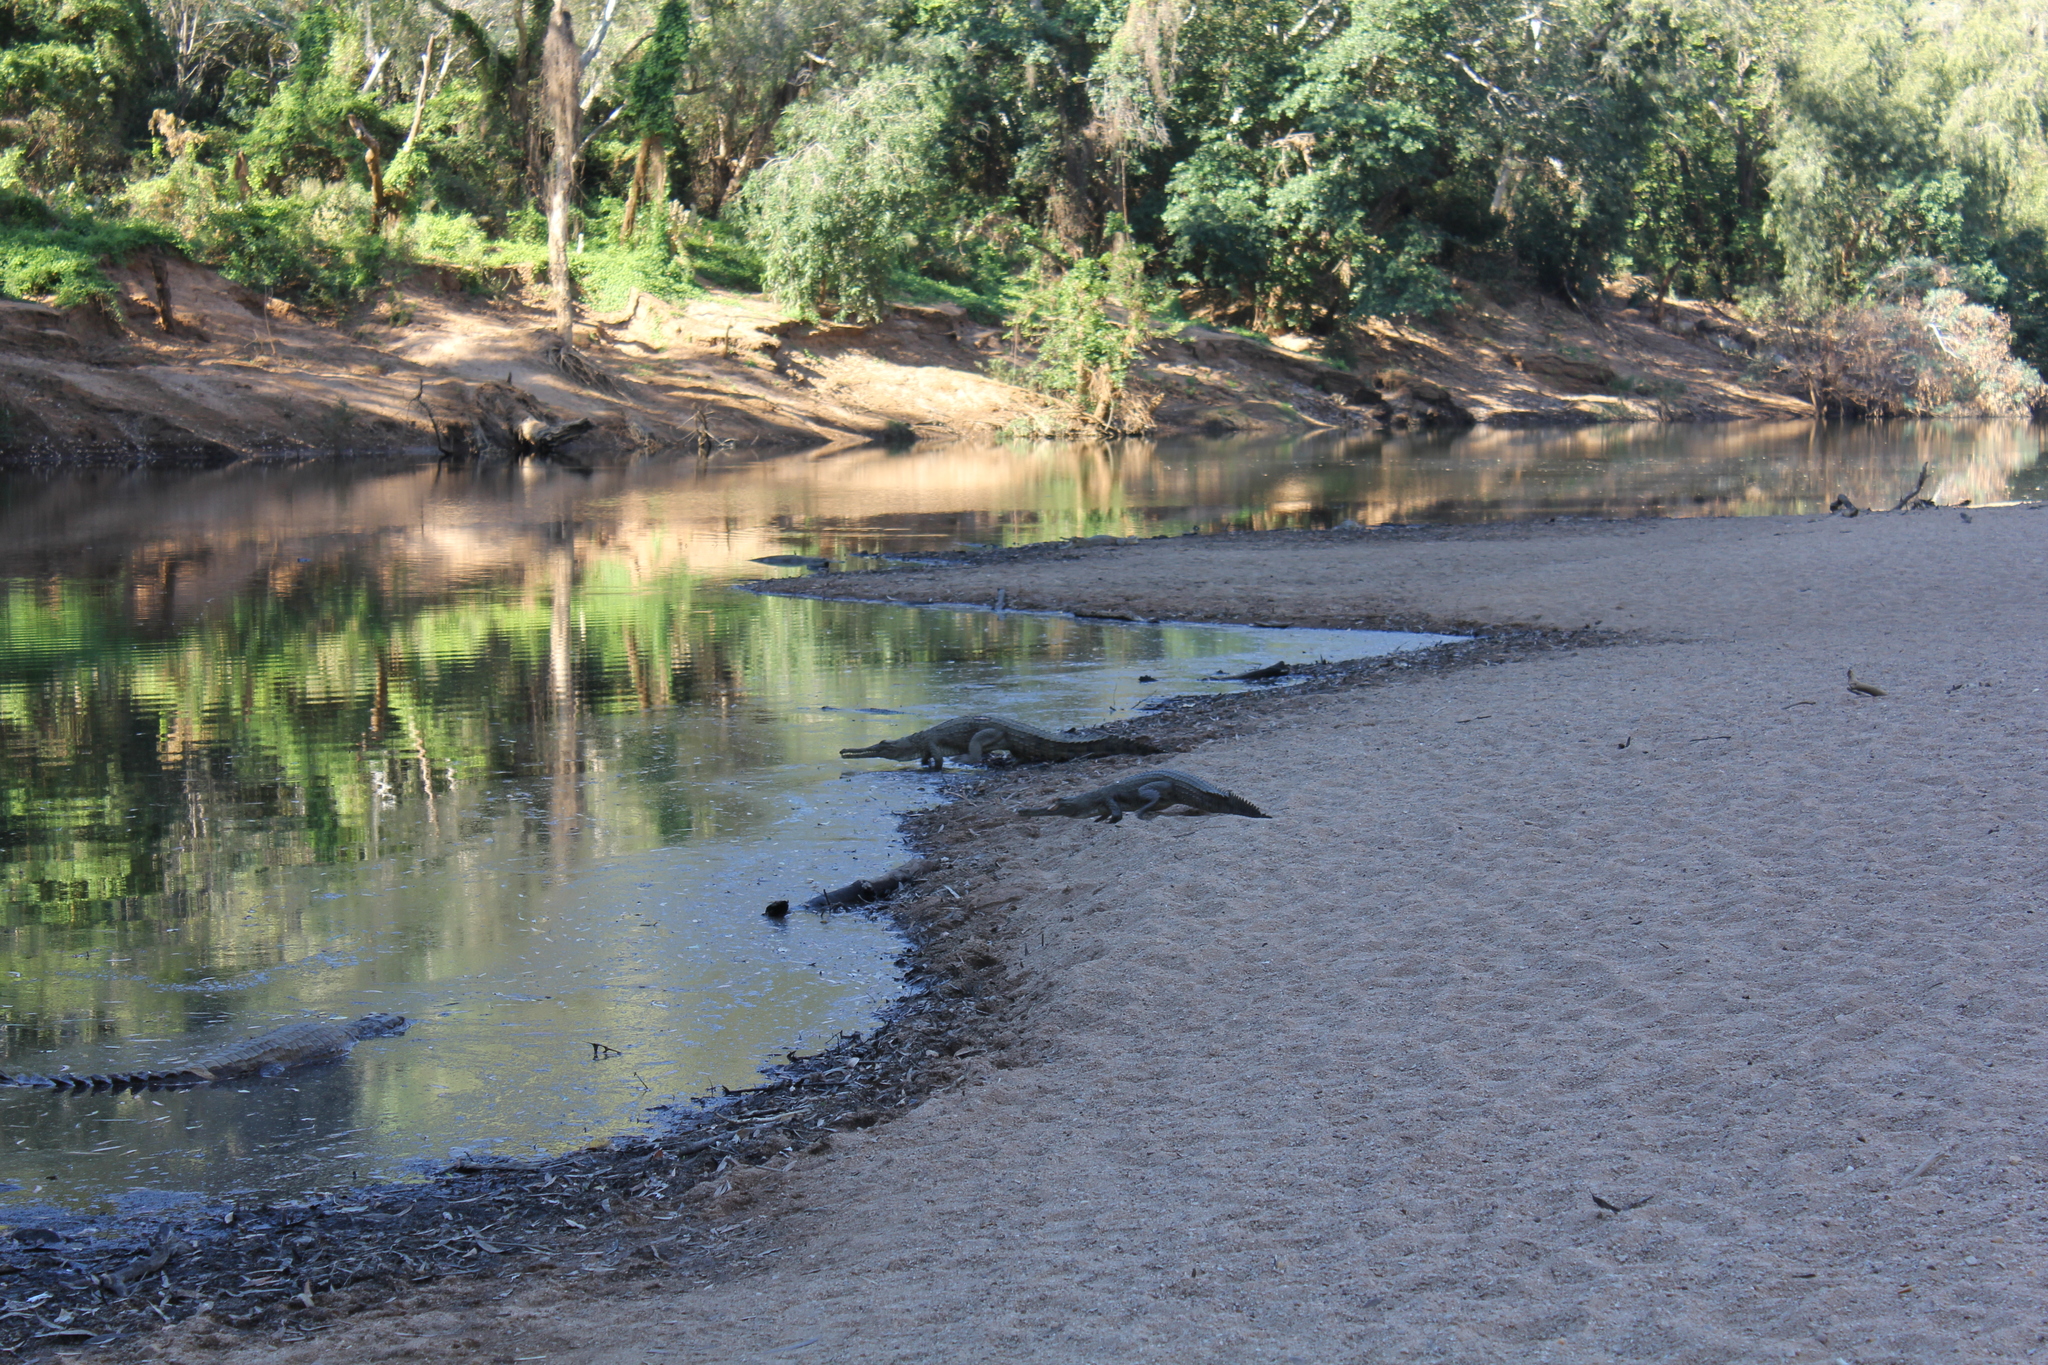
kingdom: Animalia
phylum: Chordata
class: Crocodylia
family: Crocodylidae
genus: Crocodylus
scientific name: Crocodylus johnsoni
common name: Freshwater crocodile
